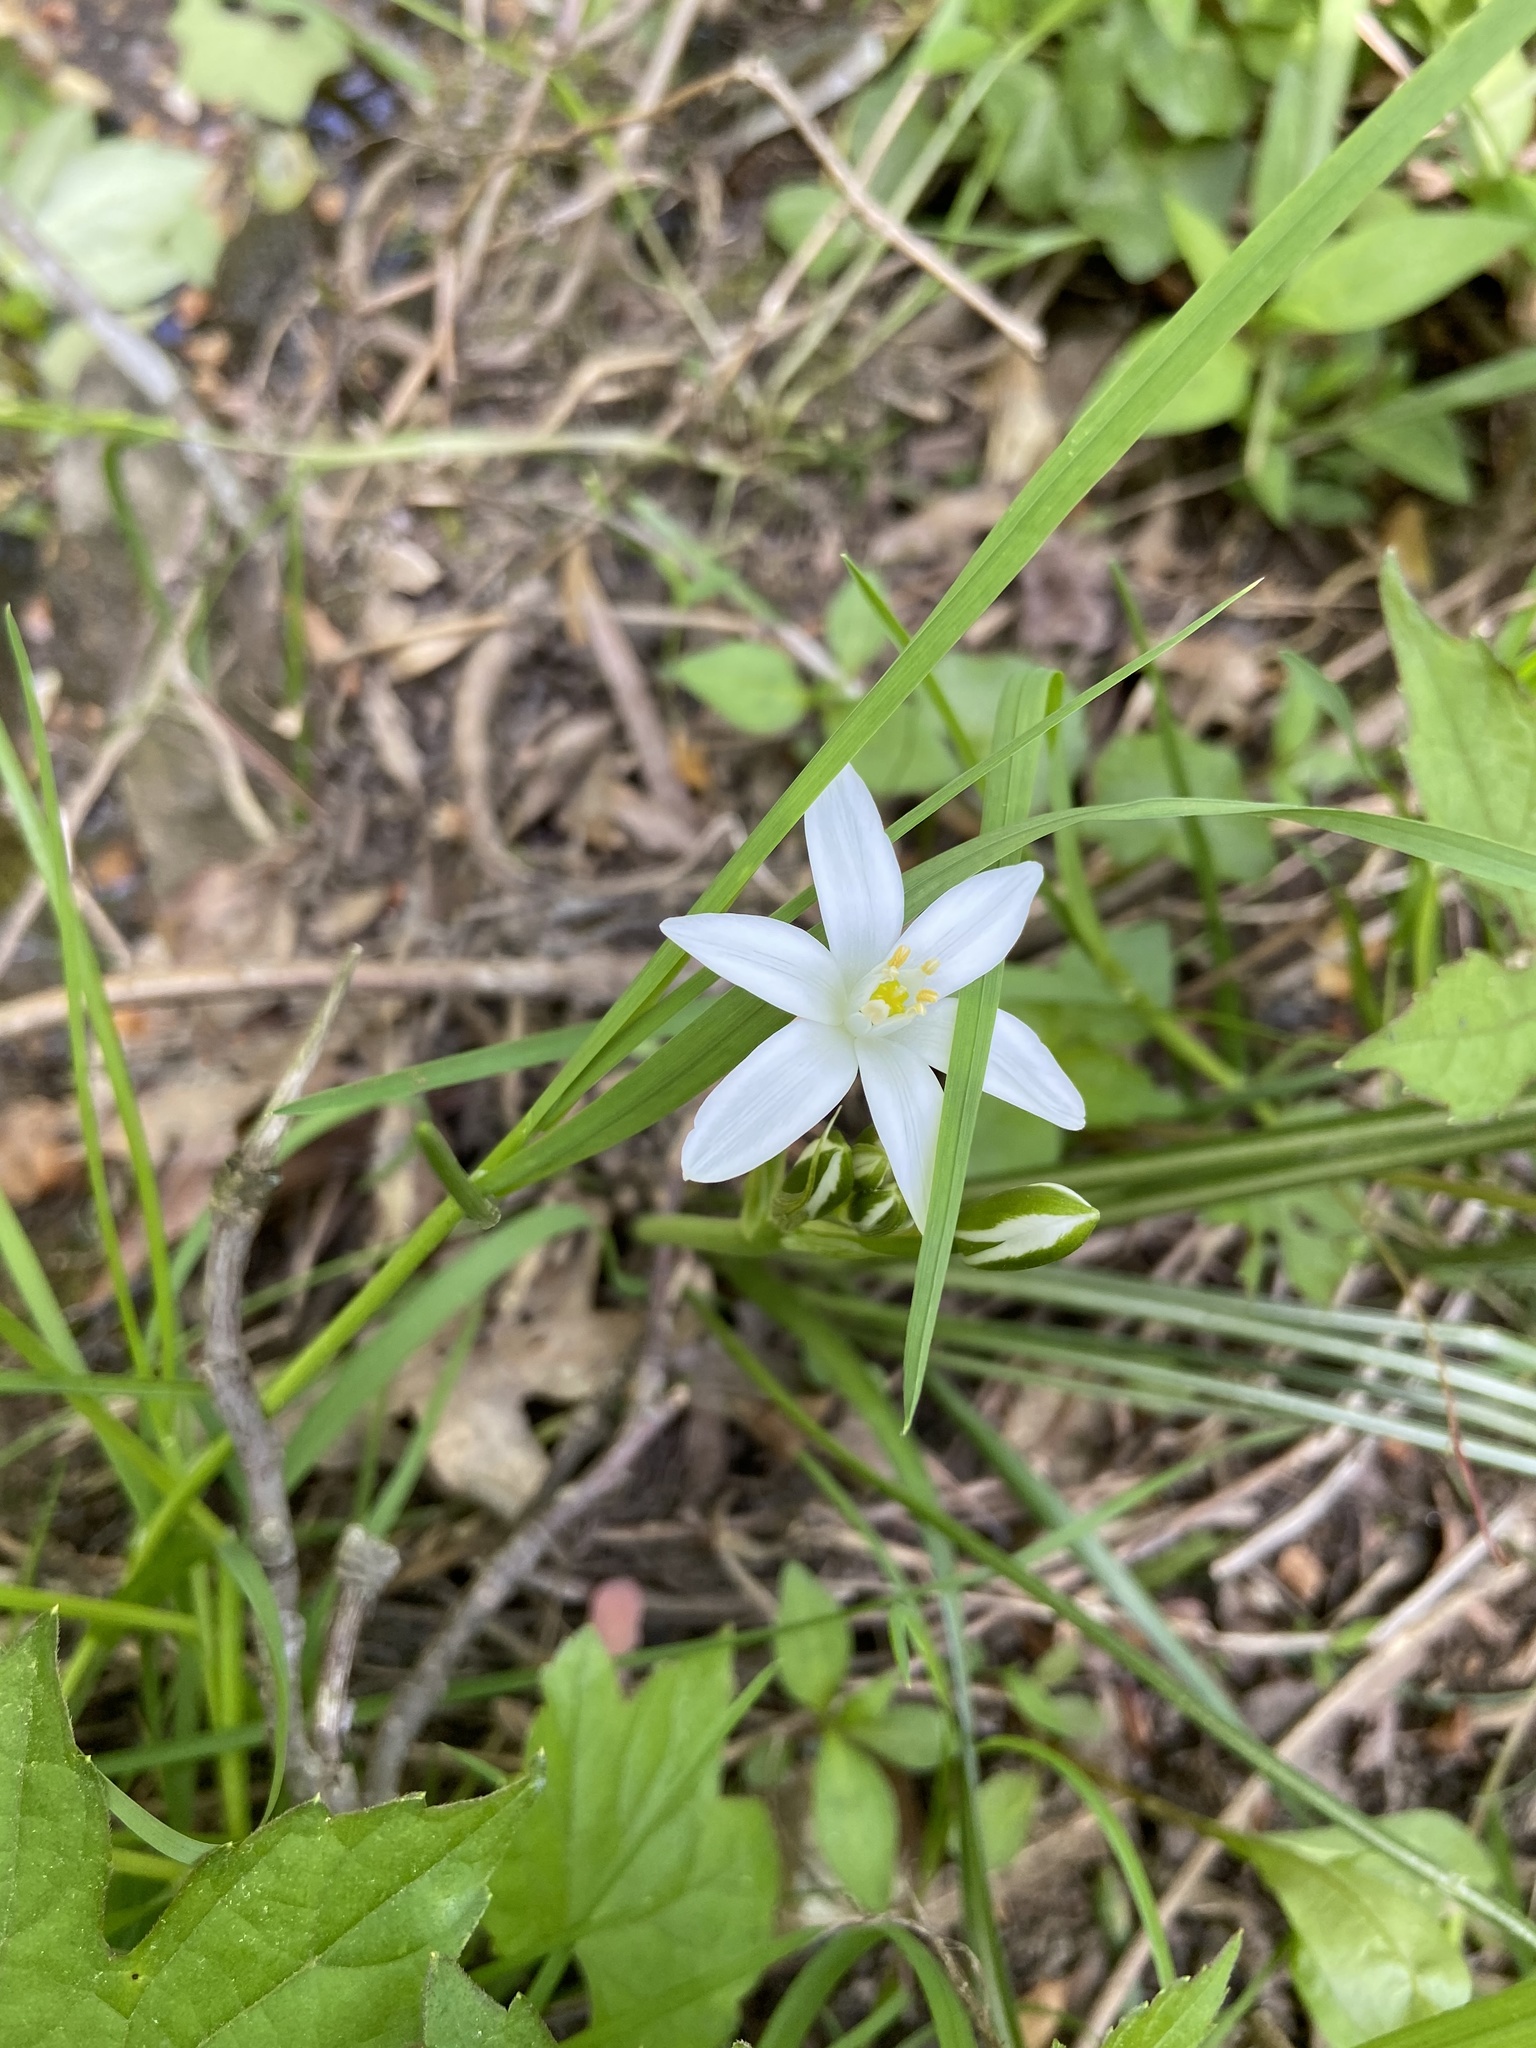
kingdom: Plantae
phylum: Tracheophyta
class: Liliopsida
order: Asparagales
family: Asparagaceae
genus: Ornithogalum
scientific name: Ornithogalum umbellatum
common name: Garden star-of-bethlehem
